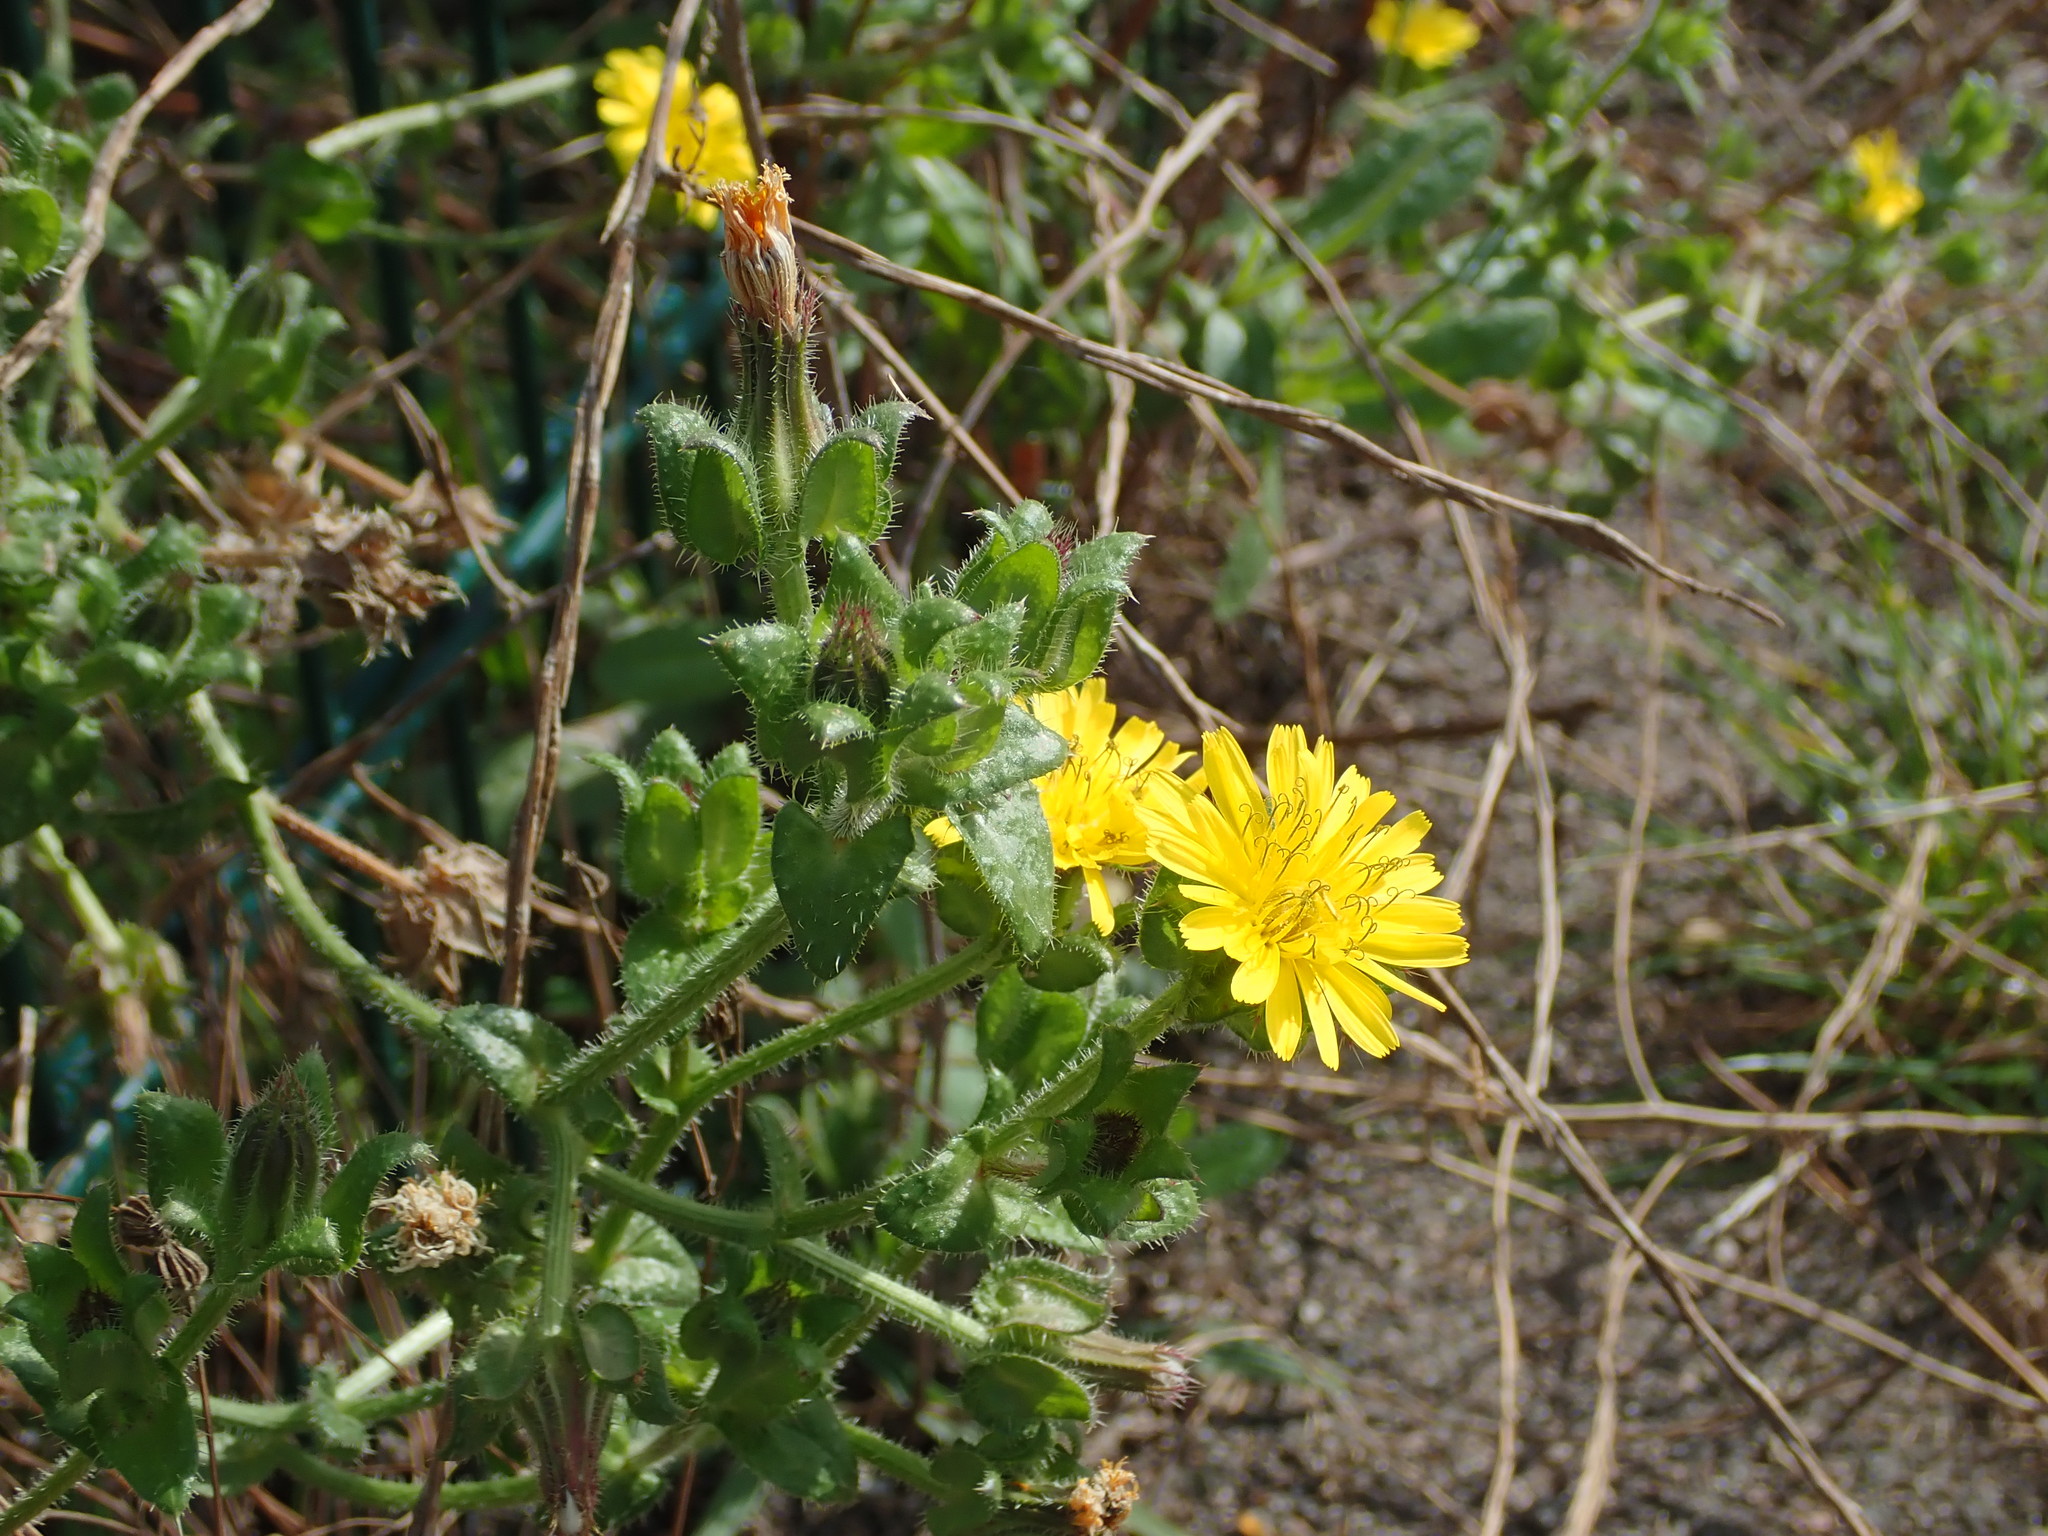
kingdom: Plantae
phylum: Tracheophyta
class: Magnoliopsida
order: Asterales
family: Asteraceae
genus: Helminthotheca
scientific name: Helminthotheca echioides
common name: Ox-tongue
